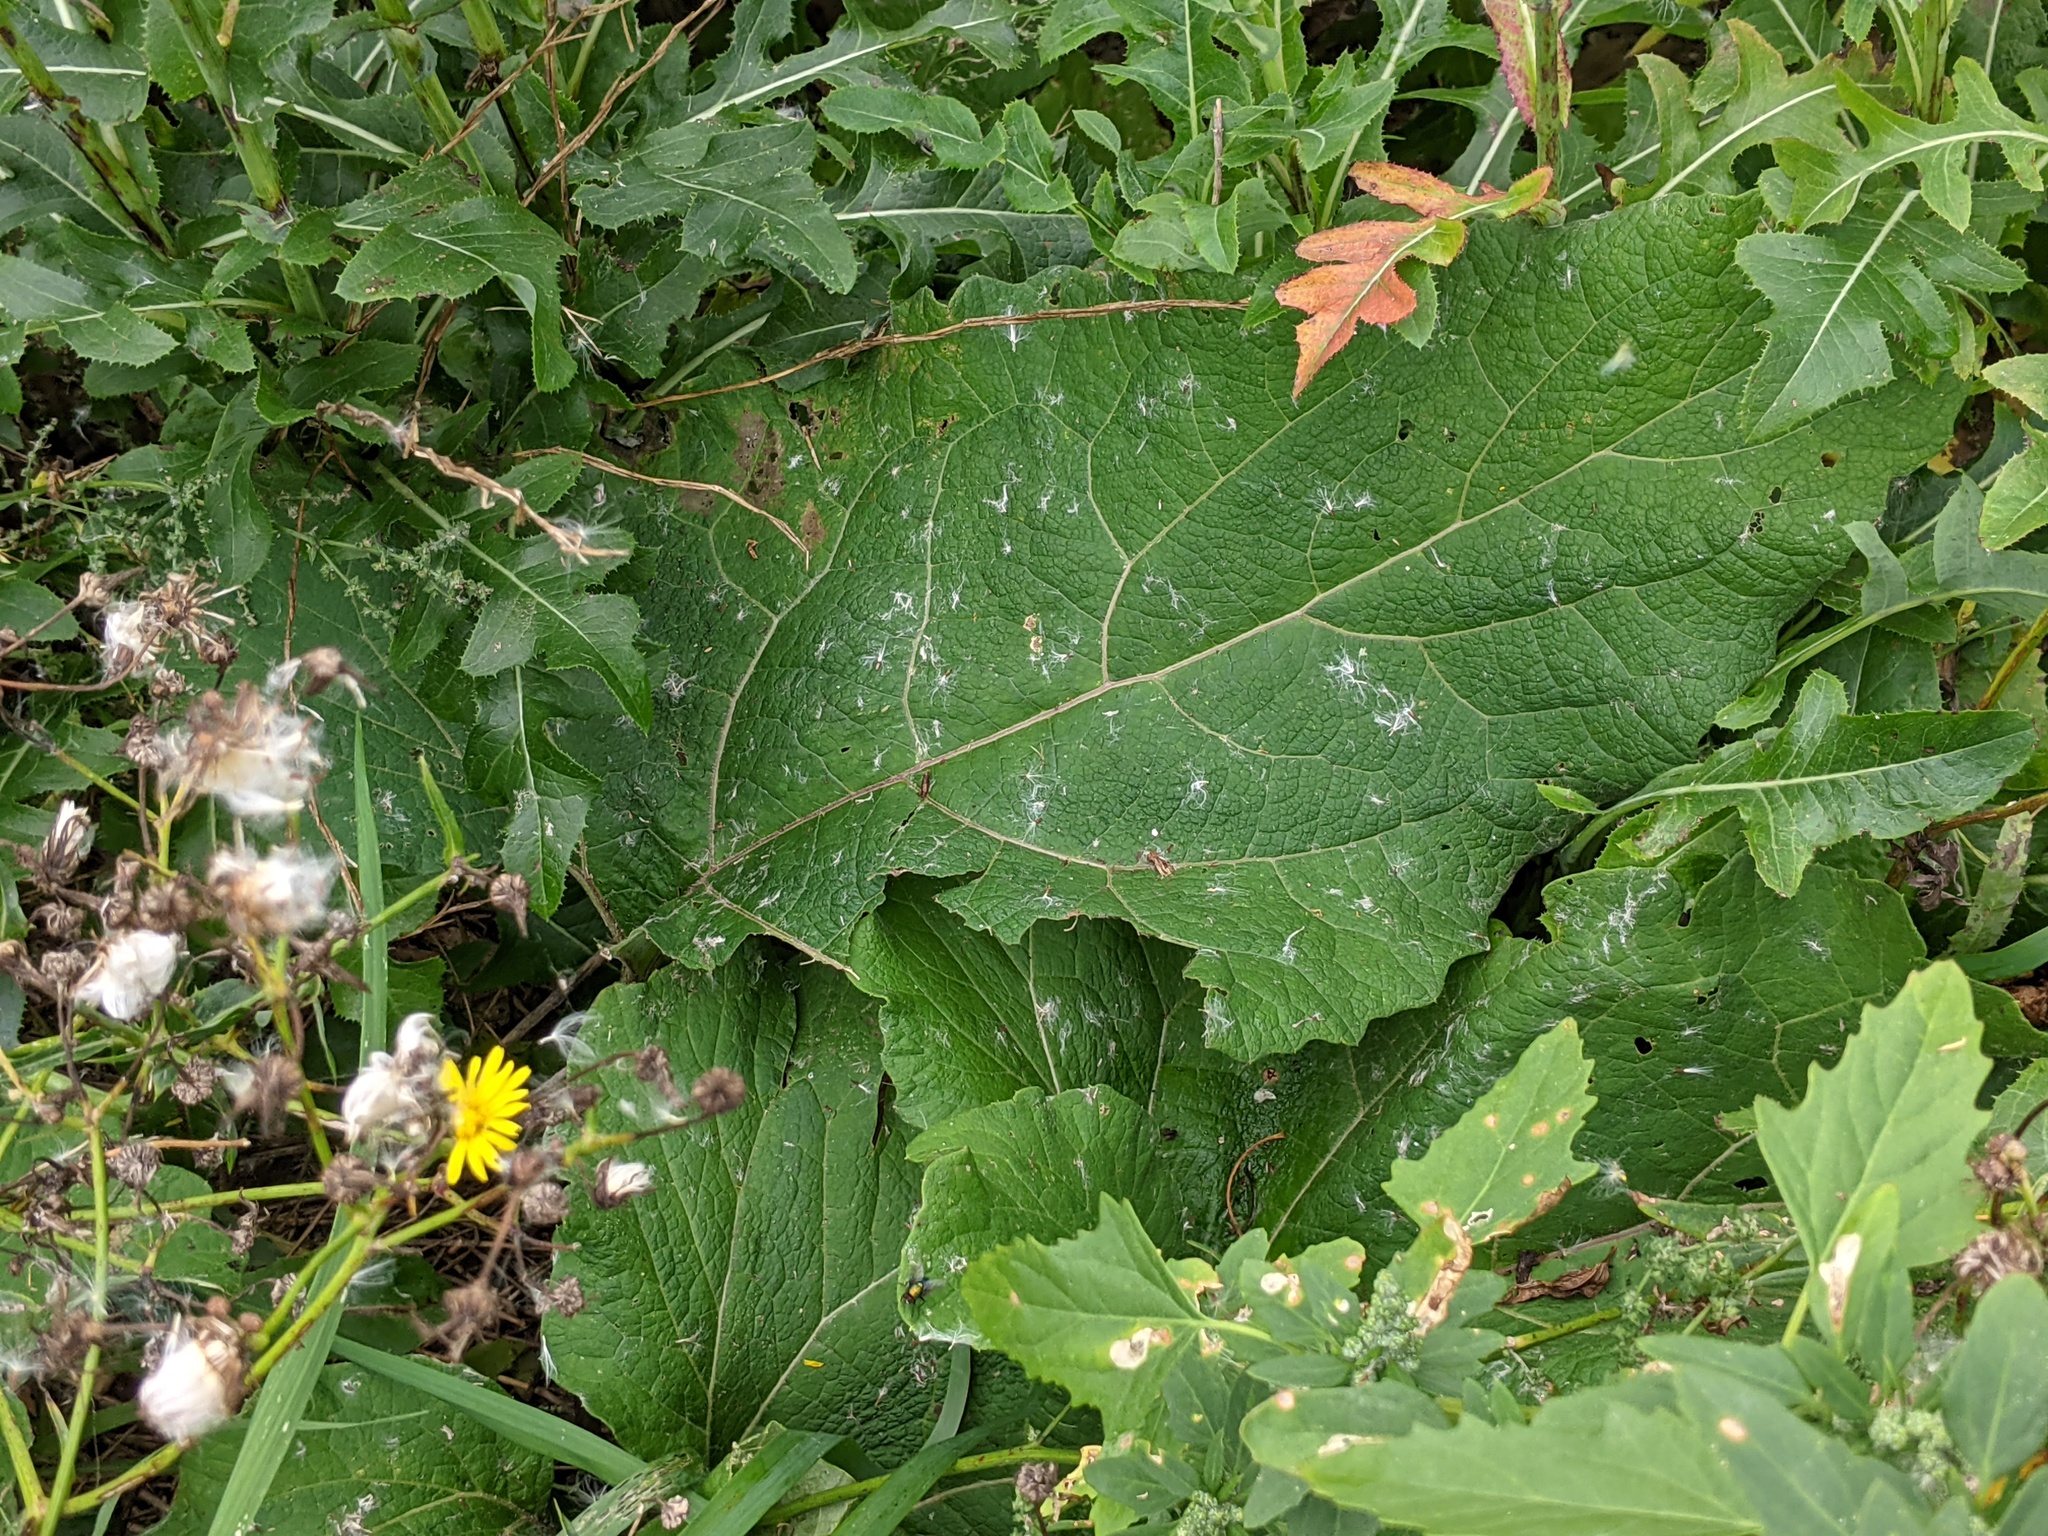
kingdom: Plantae
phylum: Tracheophyta
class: Magnoliopsida
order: Asterales
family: Asteraceae
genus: Arctium
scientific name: Arctium
